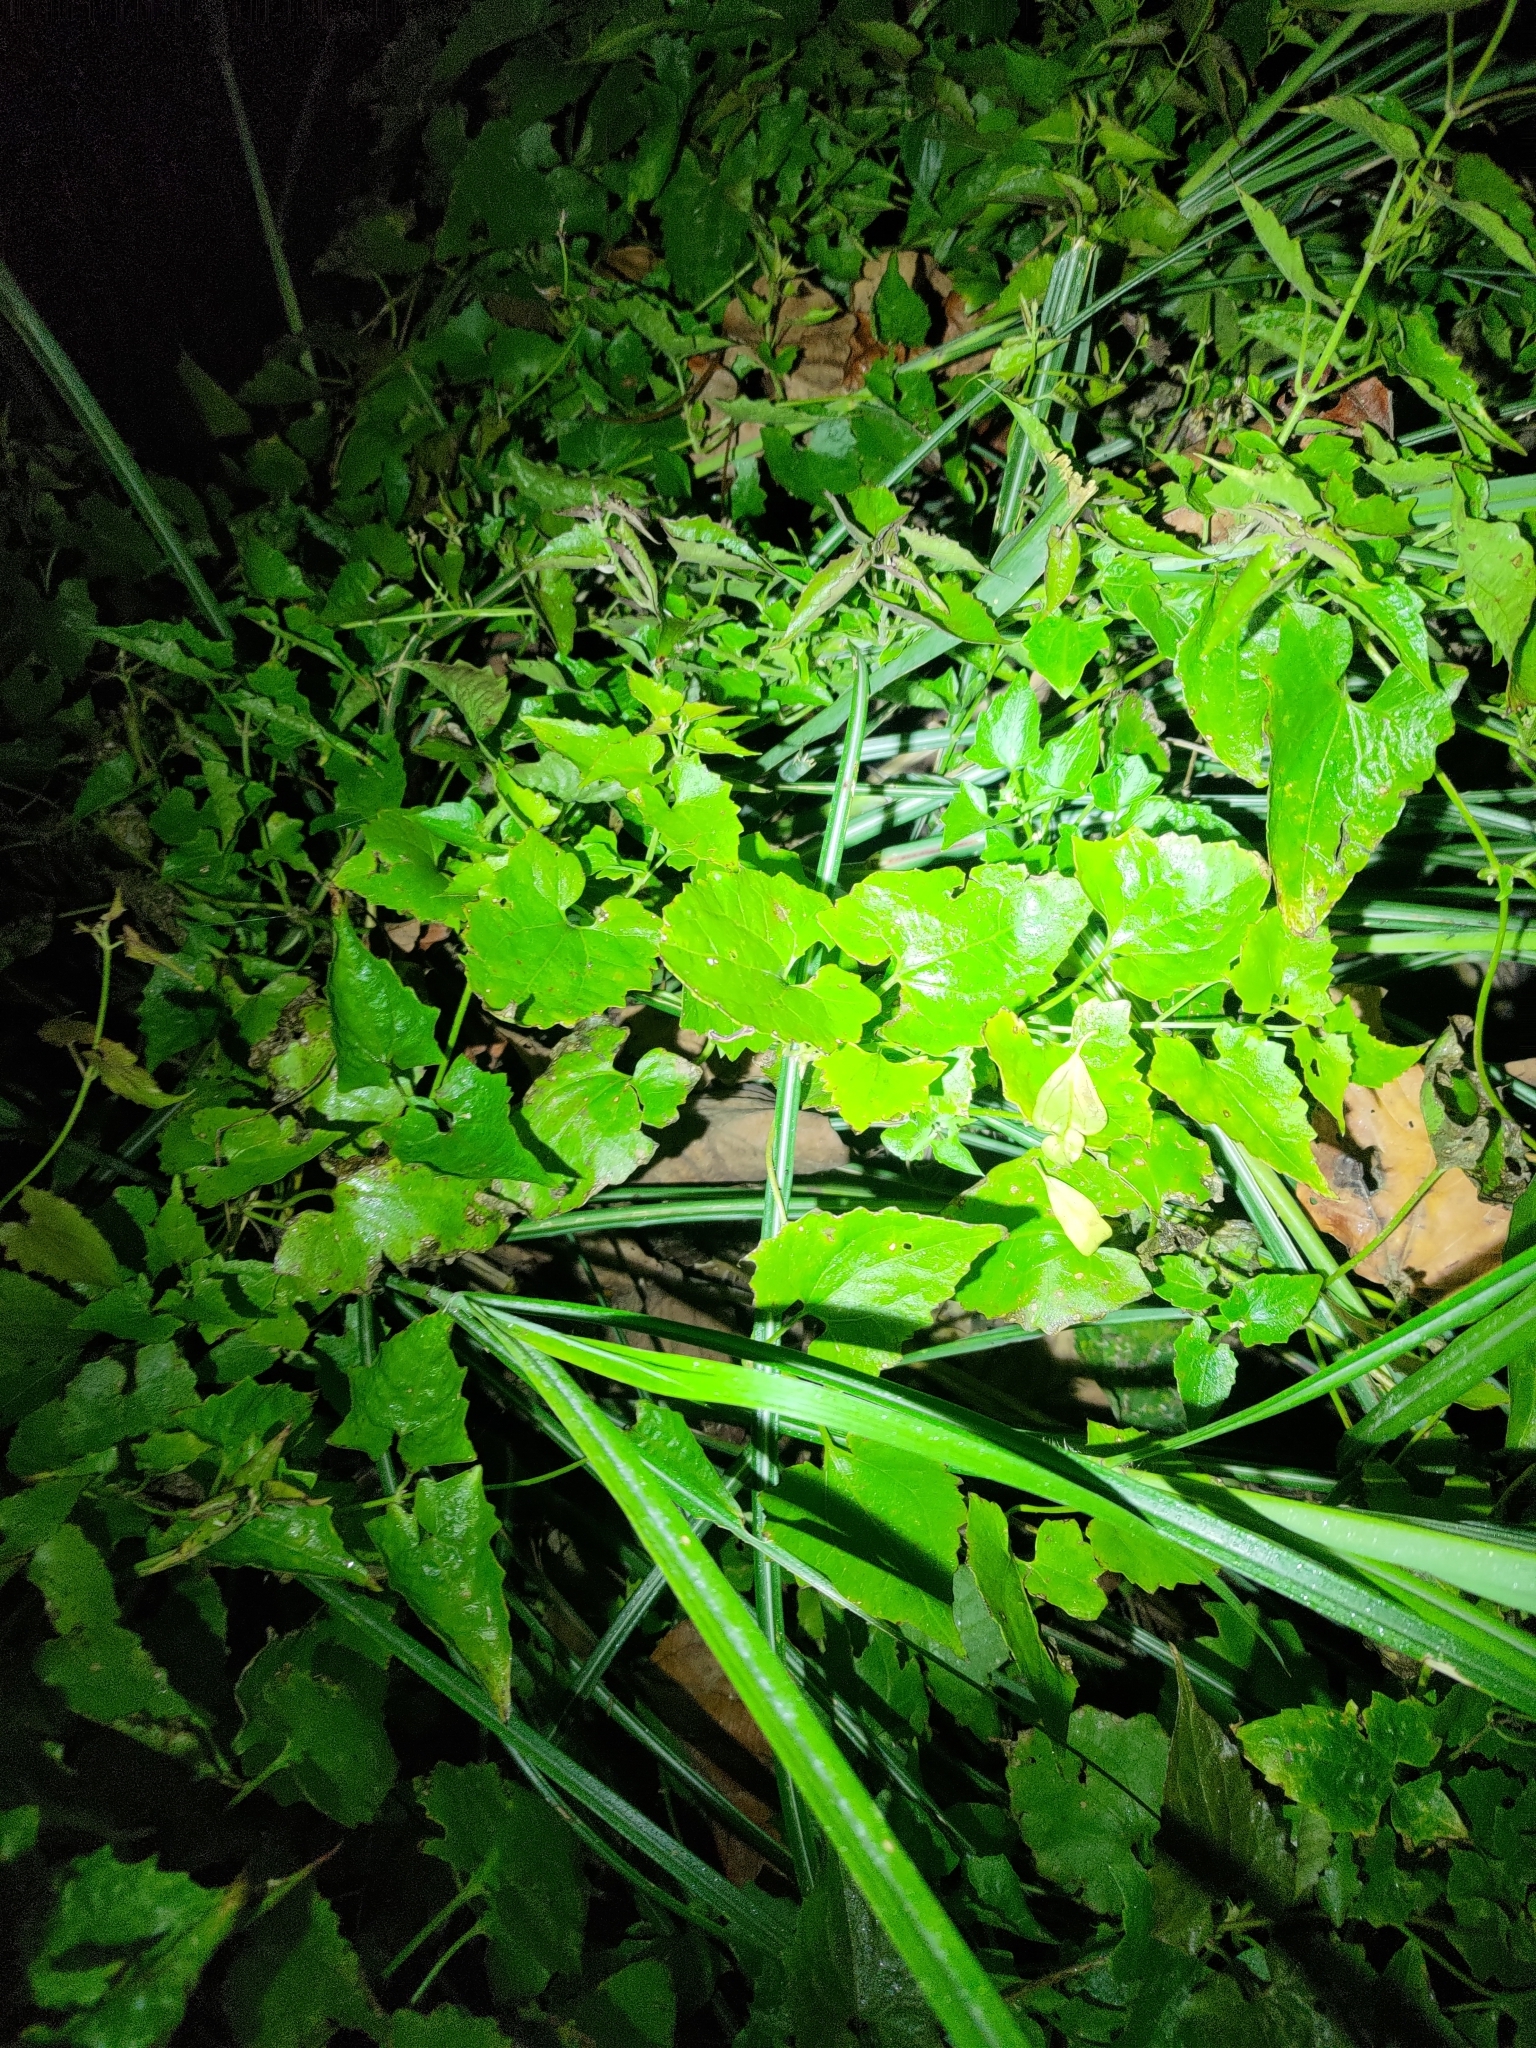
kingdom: Plantae
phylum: Tracheophyta
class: Magnoliopsida
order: Asterales
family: Asteraceae
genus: Mikania
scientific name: Mikania micrantha
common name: Mile-a-minute
